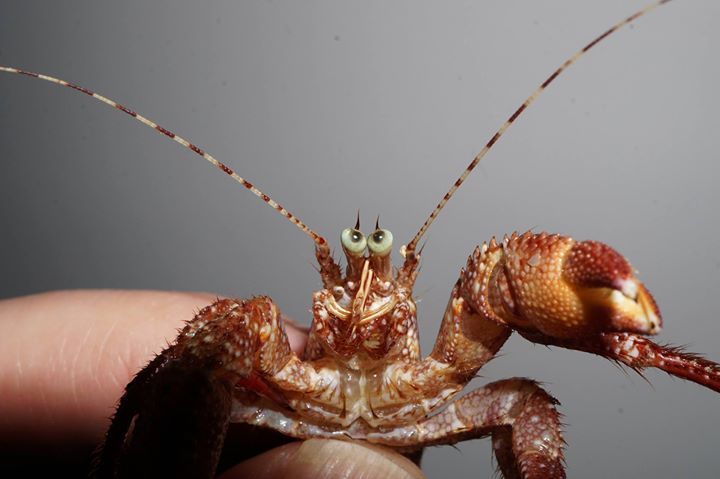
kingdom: Animalia
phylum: Arthropoda
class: Malacostraca
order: Decapoda
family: Diogenidae
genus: Petrochirus
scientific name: Petrochirus diogenes
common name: Giant hermit crab
